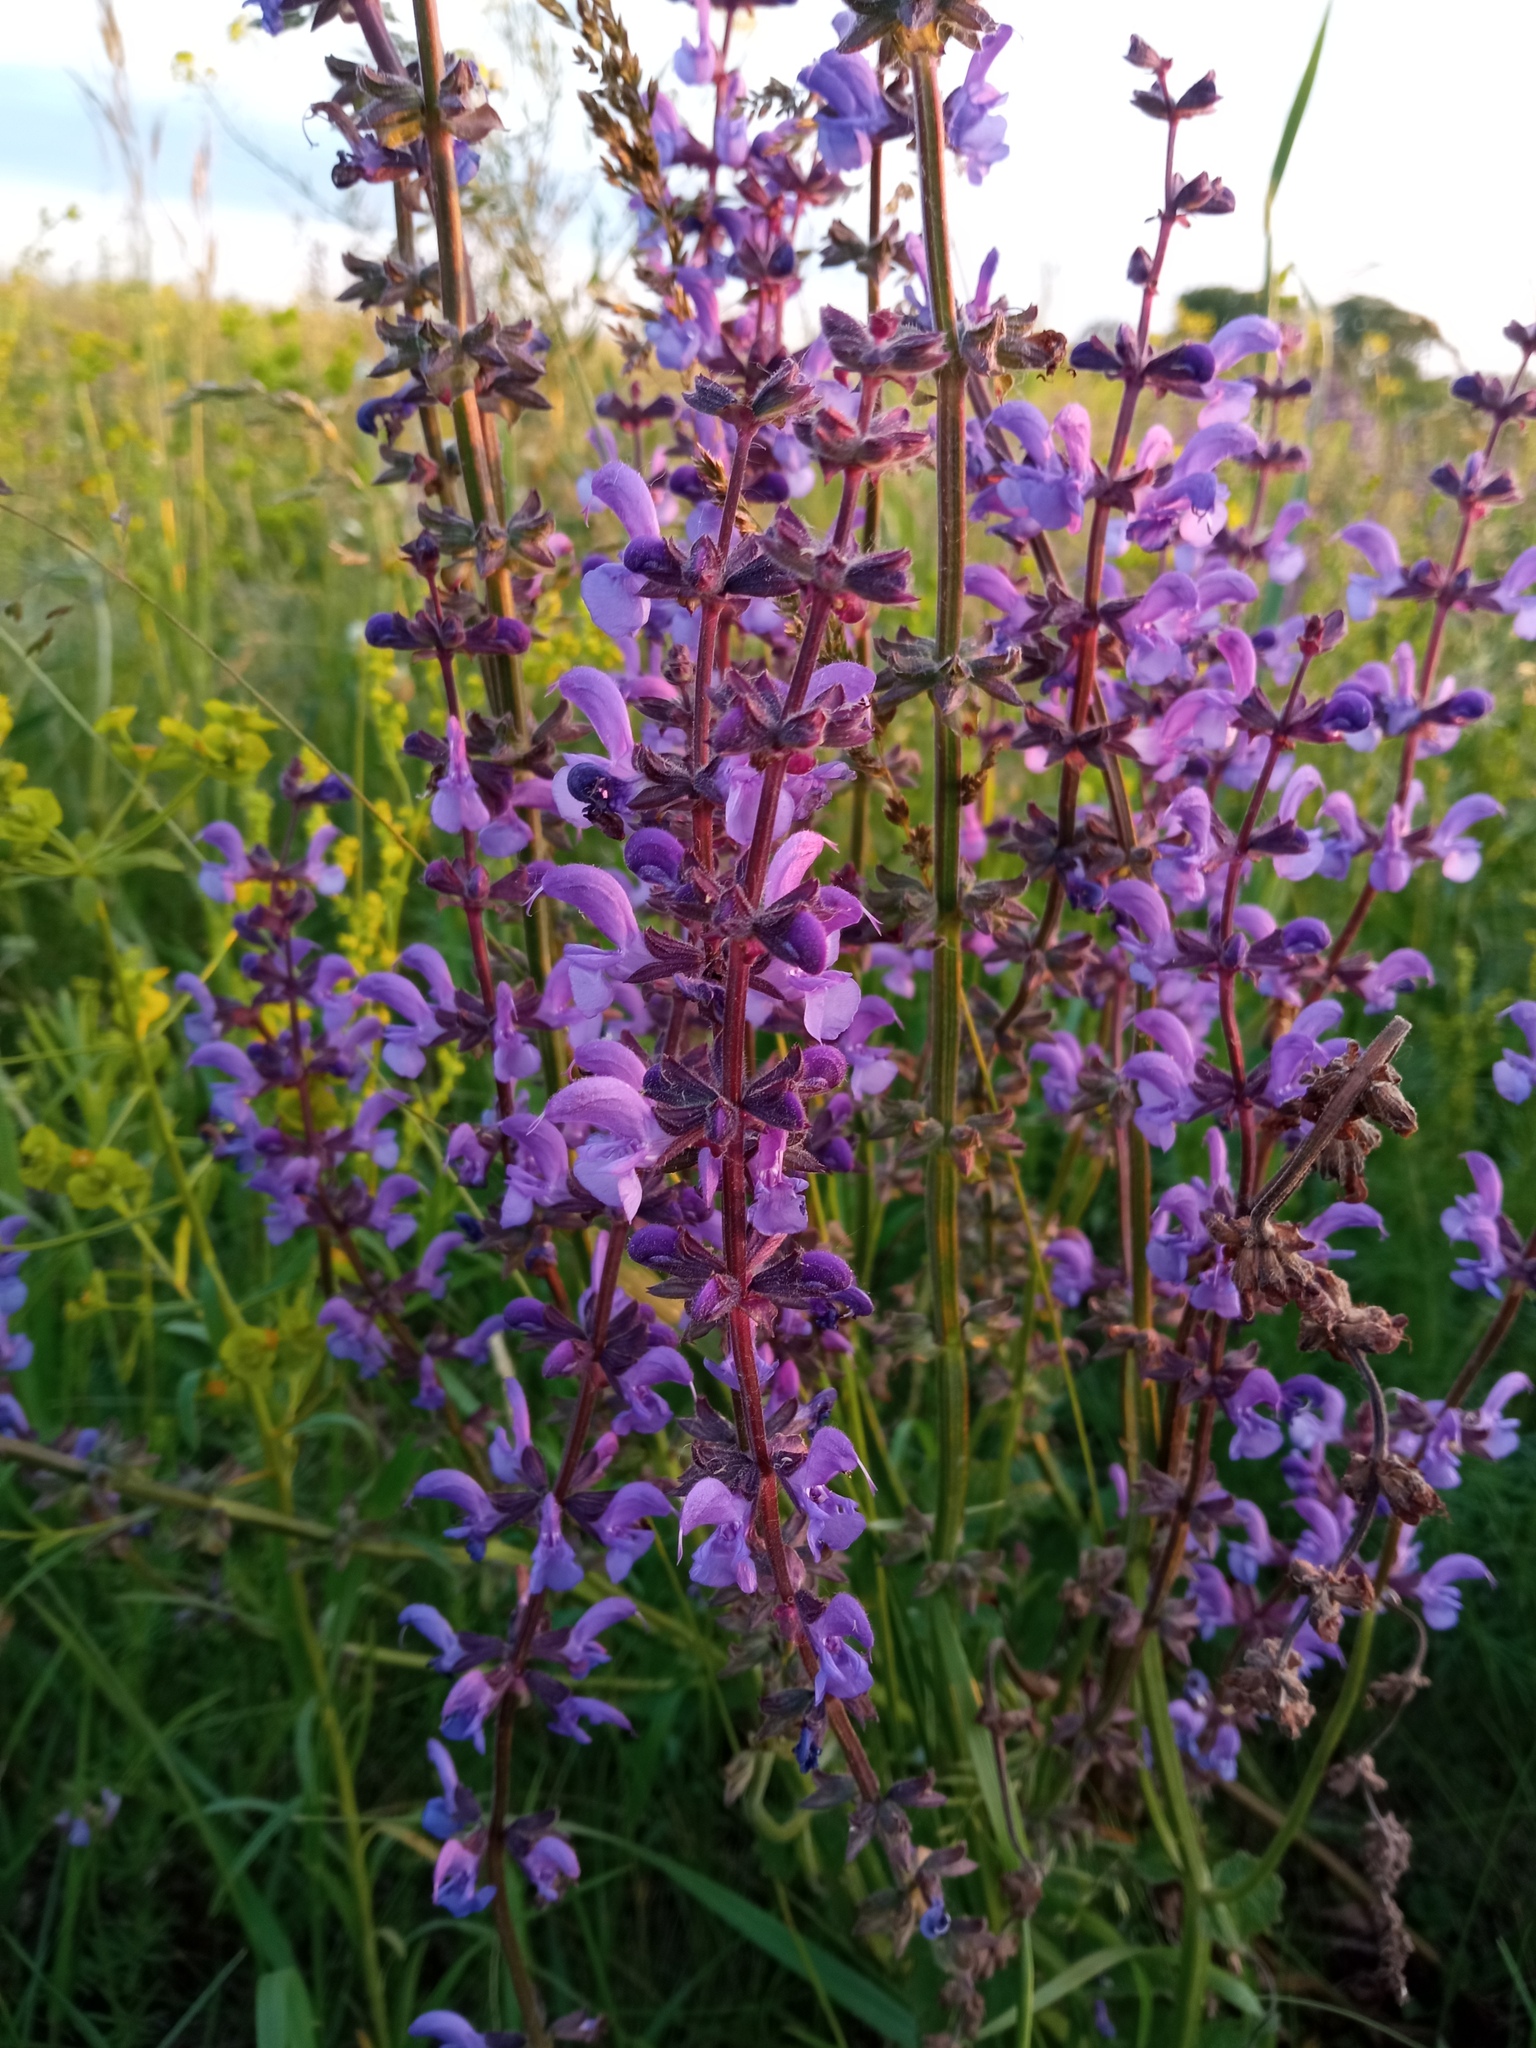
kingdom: Plantae
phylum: Tracheophyta
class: Magnoliopsida
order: Lamiales
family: Lamiaceae
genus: Salvia
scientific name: Salvia dumetorum
